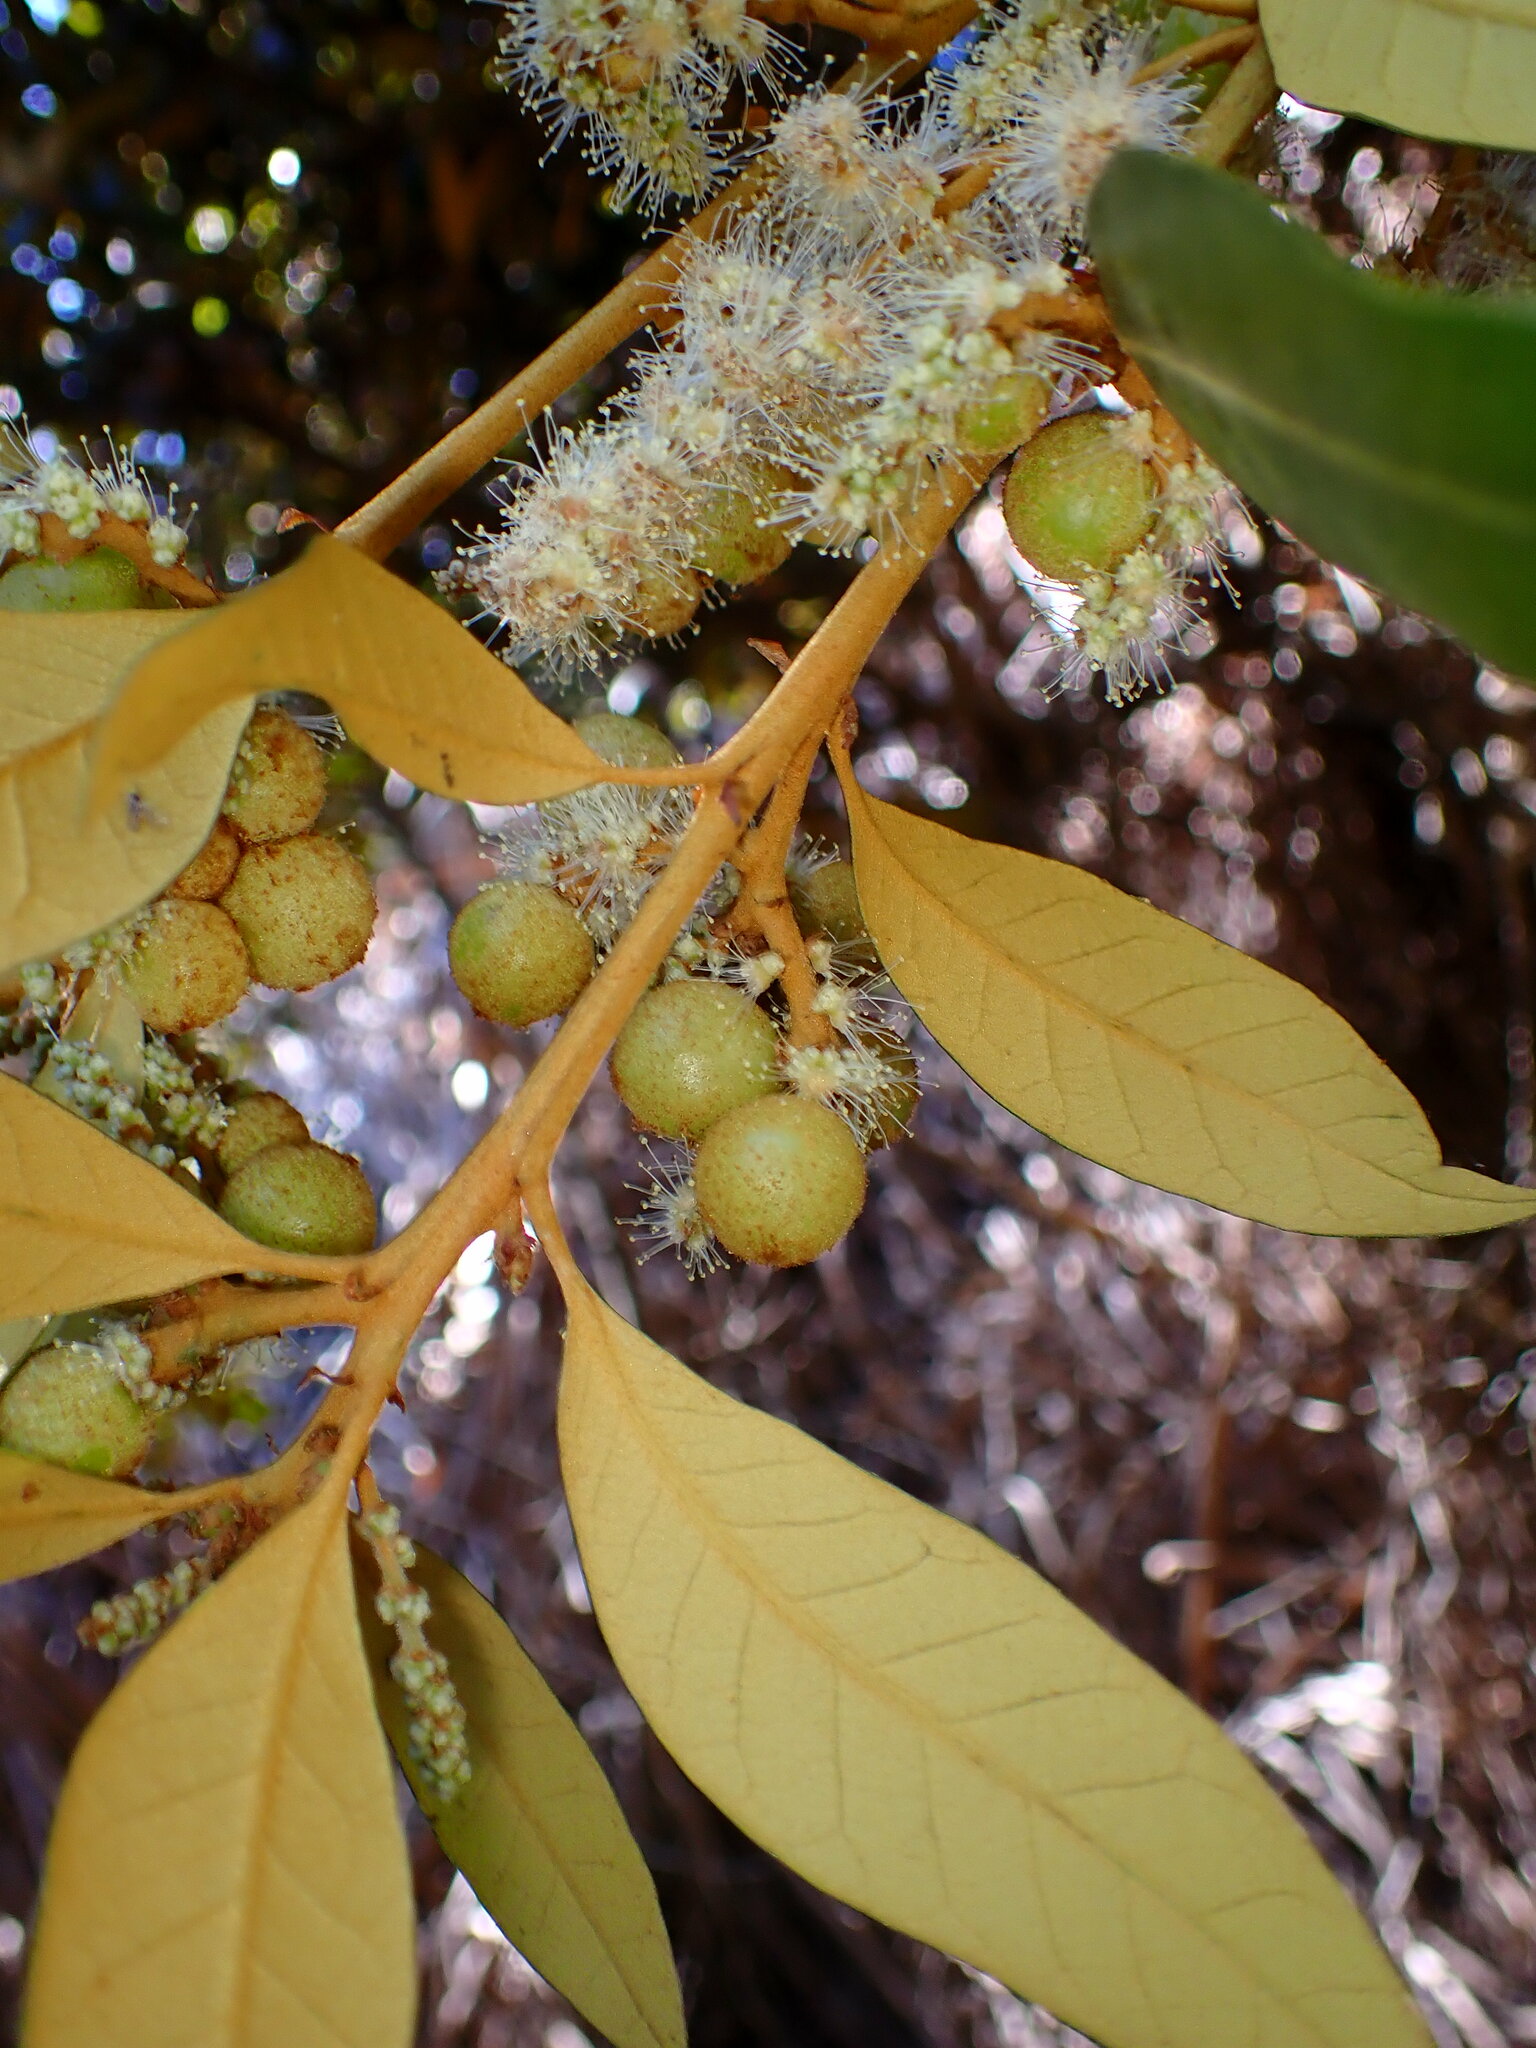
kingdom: Animalia
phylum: Arthropoda
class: Insecta
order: Hymenoptera
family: Cynipidae
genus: Synergus
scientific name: Synergus castanopsidis
